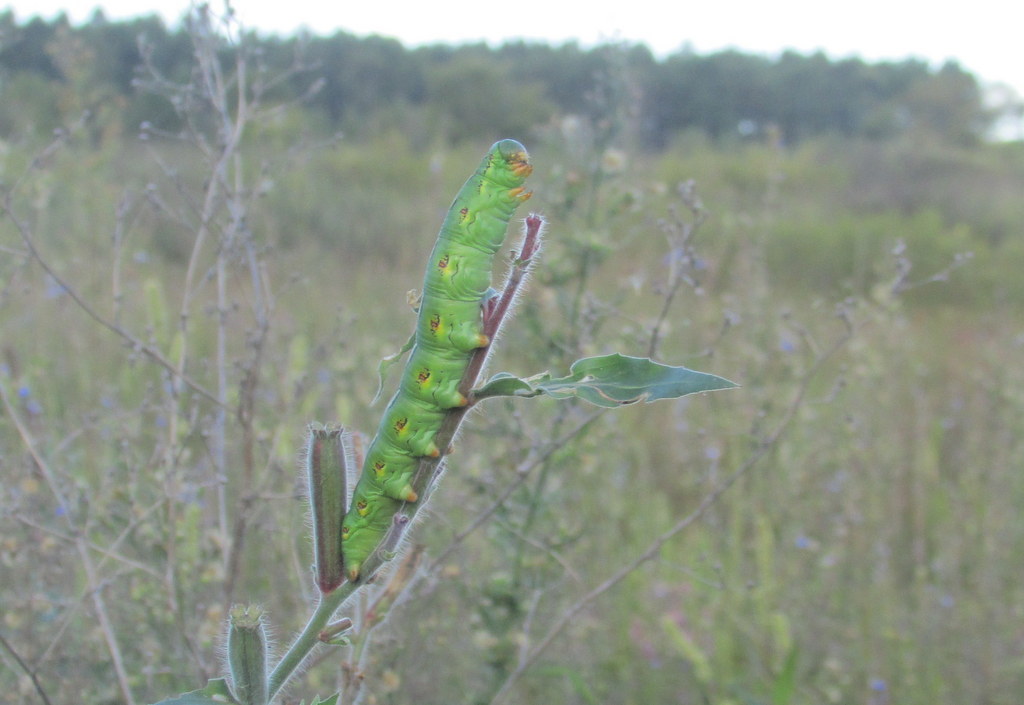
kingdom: Animalia
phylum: Arthropoda
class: Insecta
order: Lepidoptera
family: Sphingidae
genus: Hyles
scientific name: Hyles lineata
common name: White-lined sphinx
